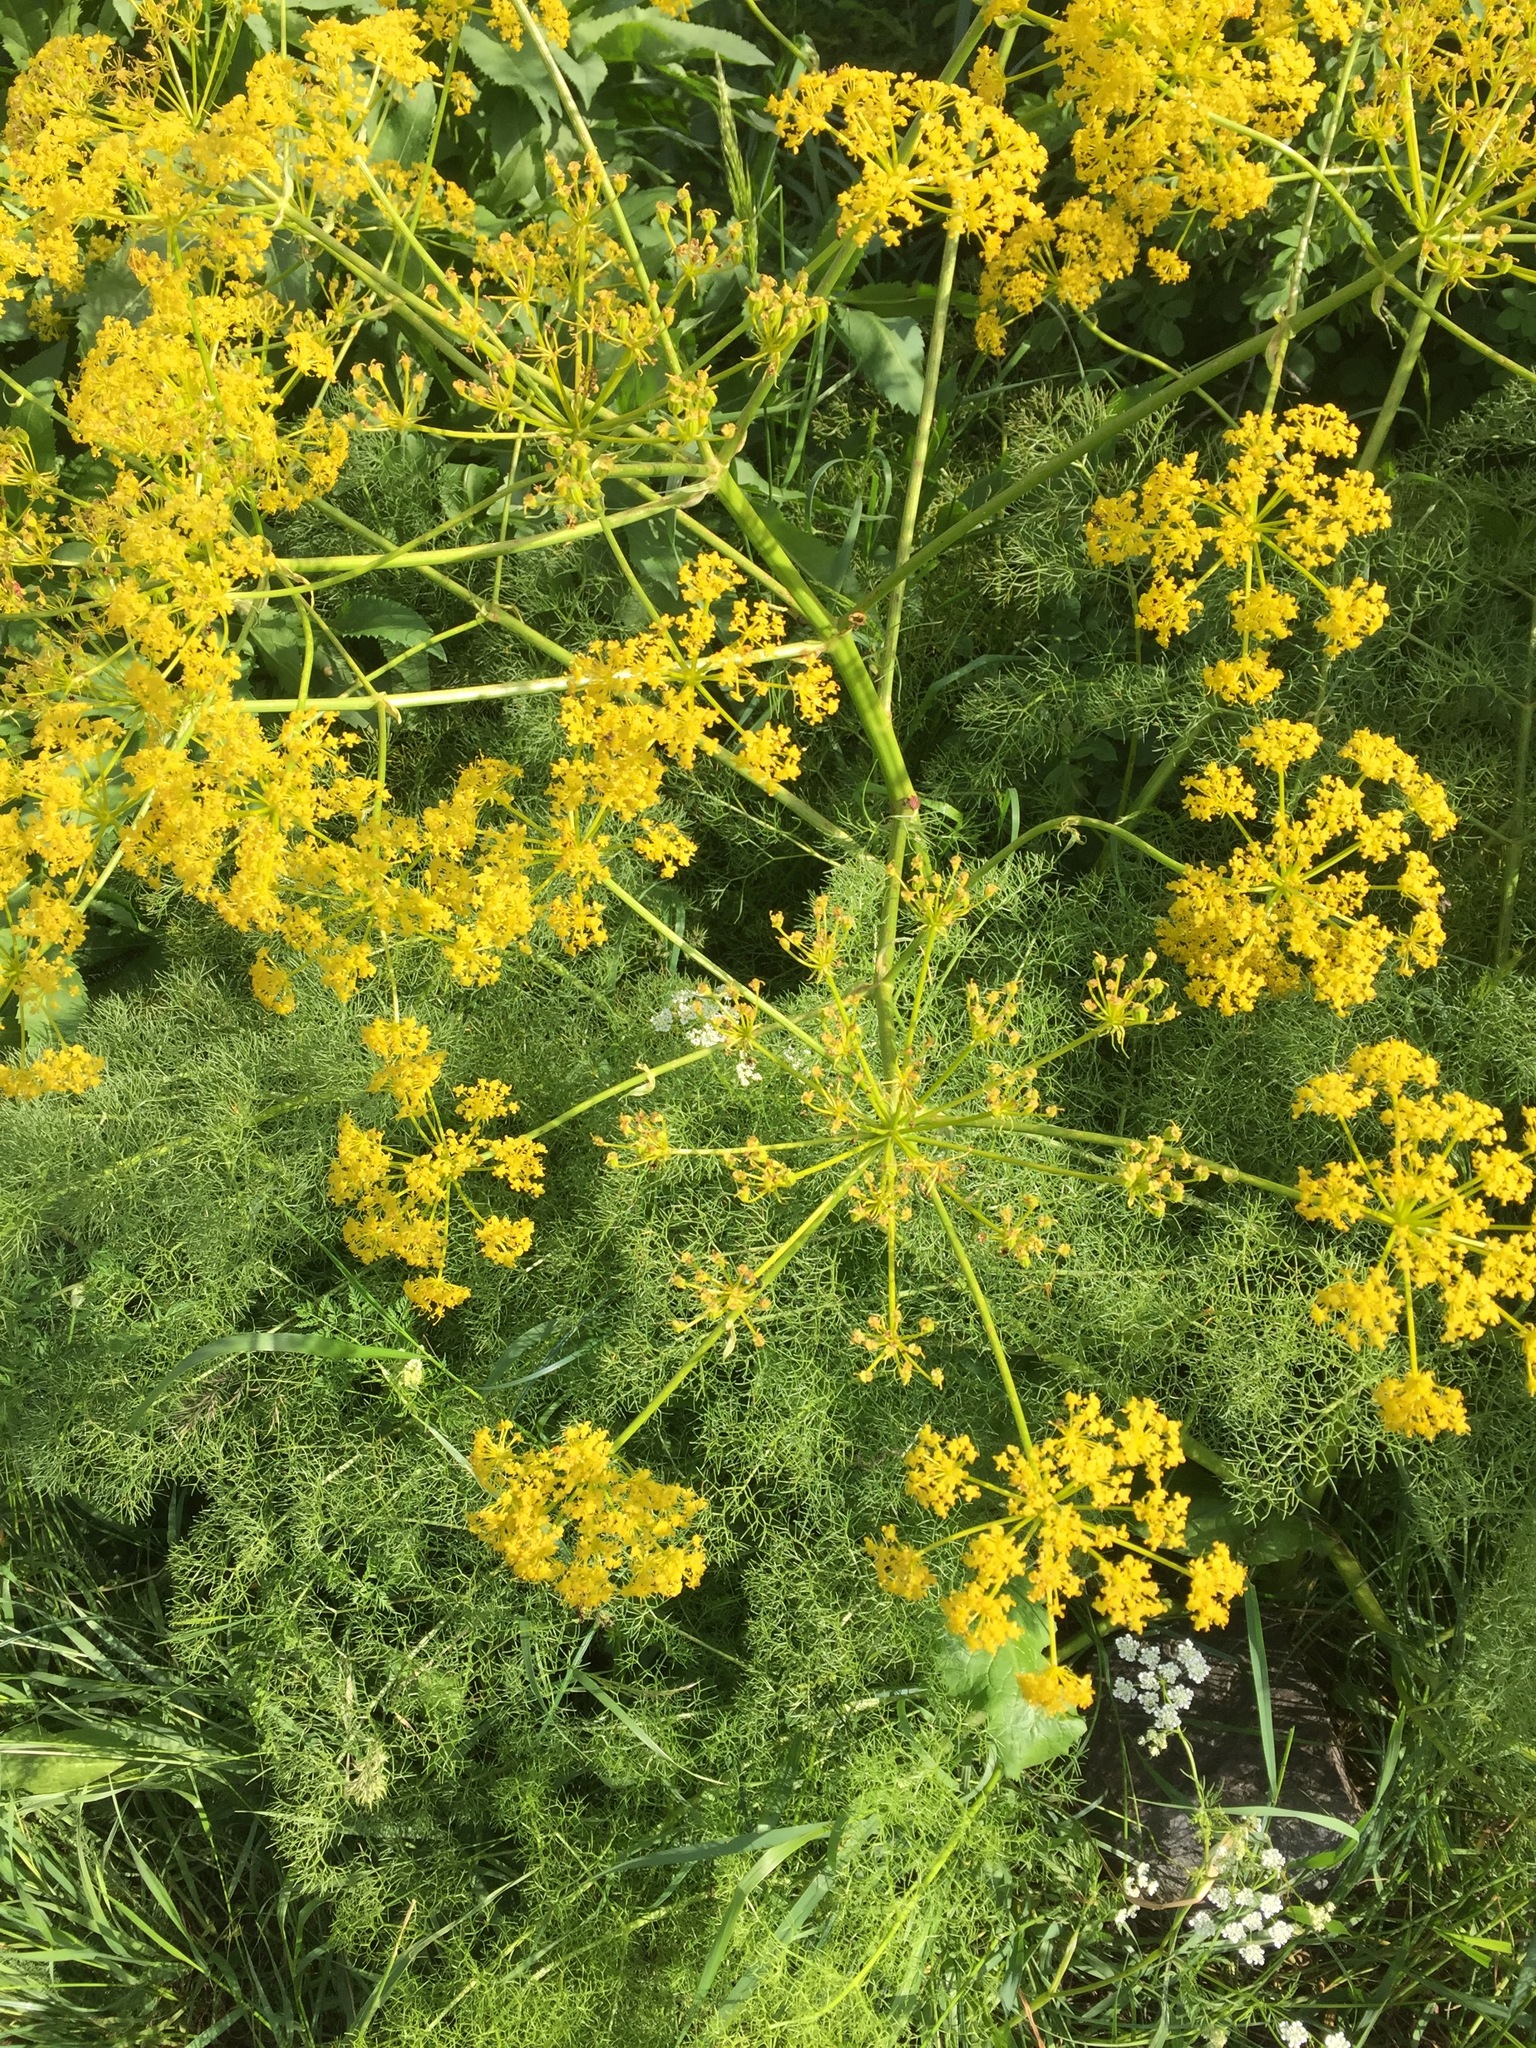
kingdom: Plantae
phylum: Tracheophyta
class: Magnoliopsida
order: Apiales
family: Apiaceae
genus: Prangos
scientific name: Prangos ferulacea
